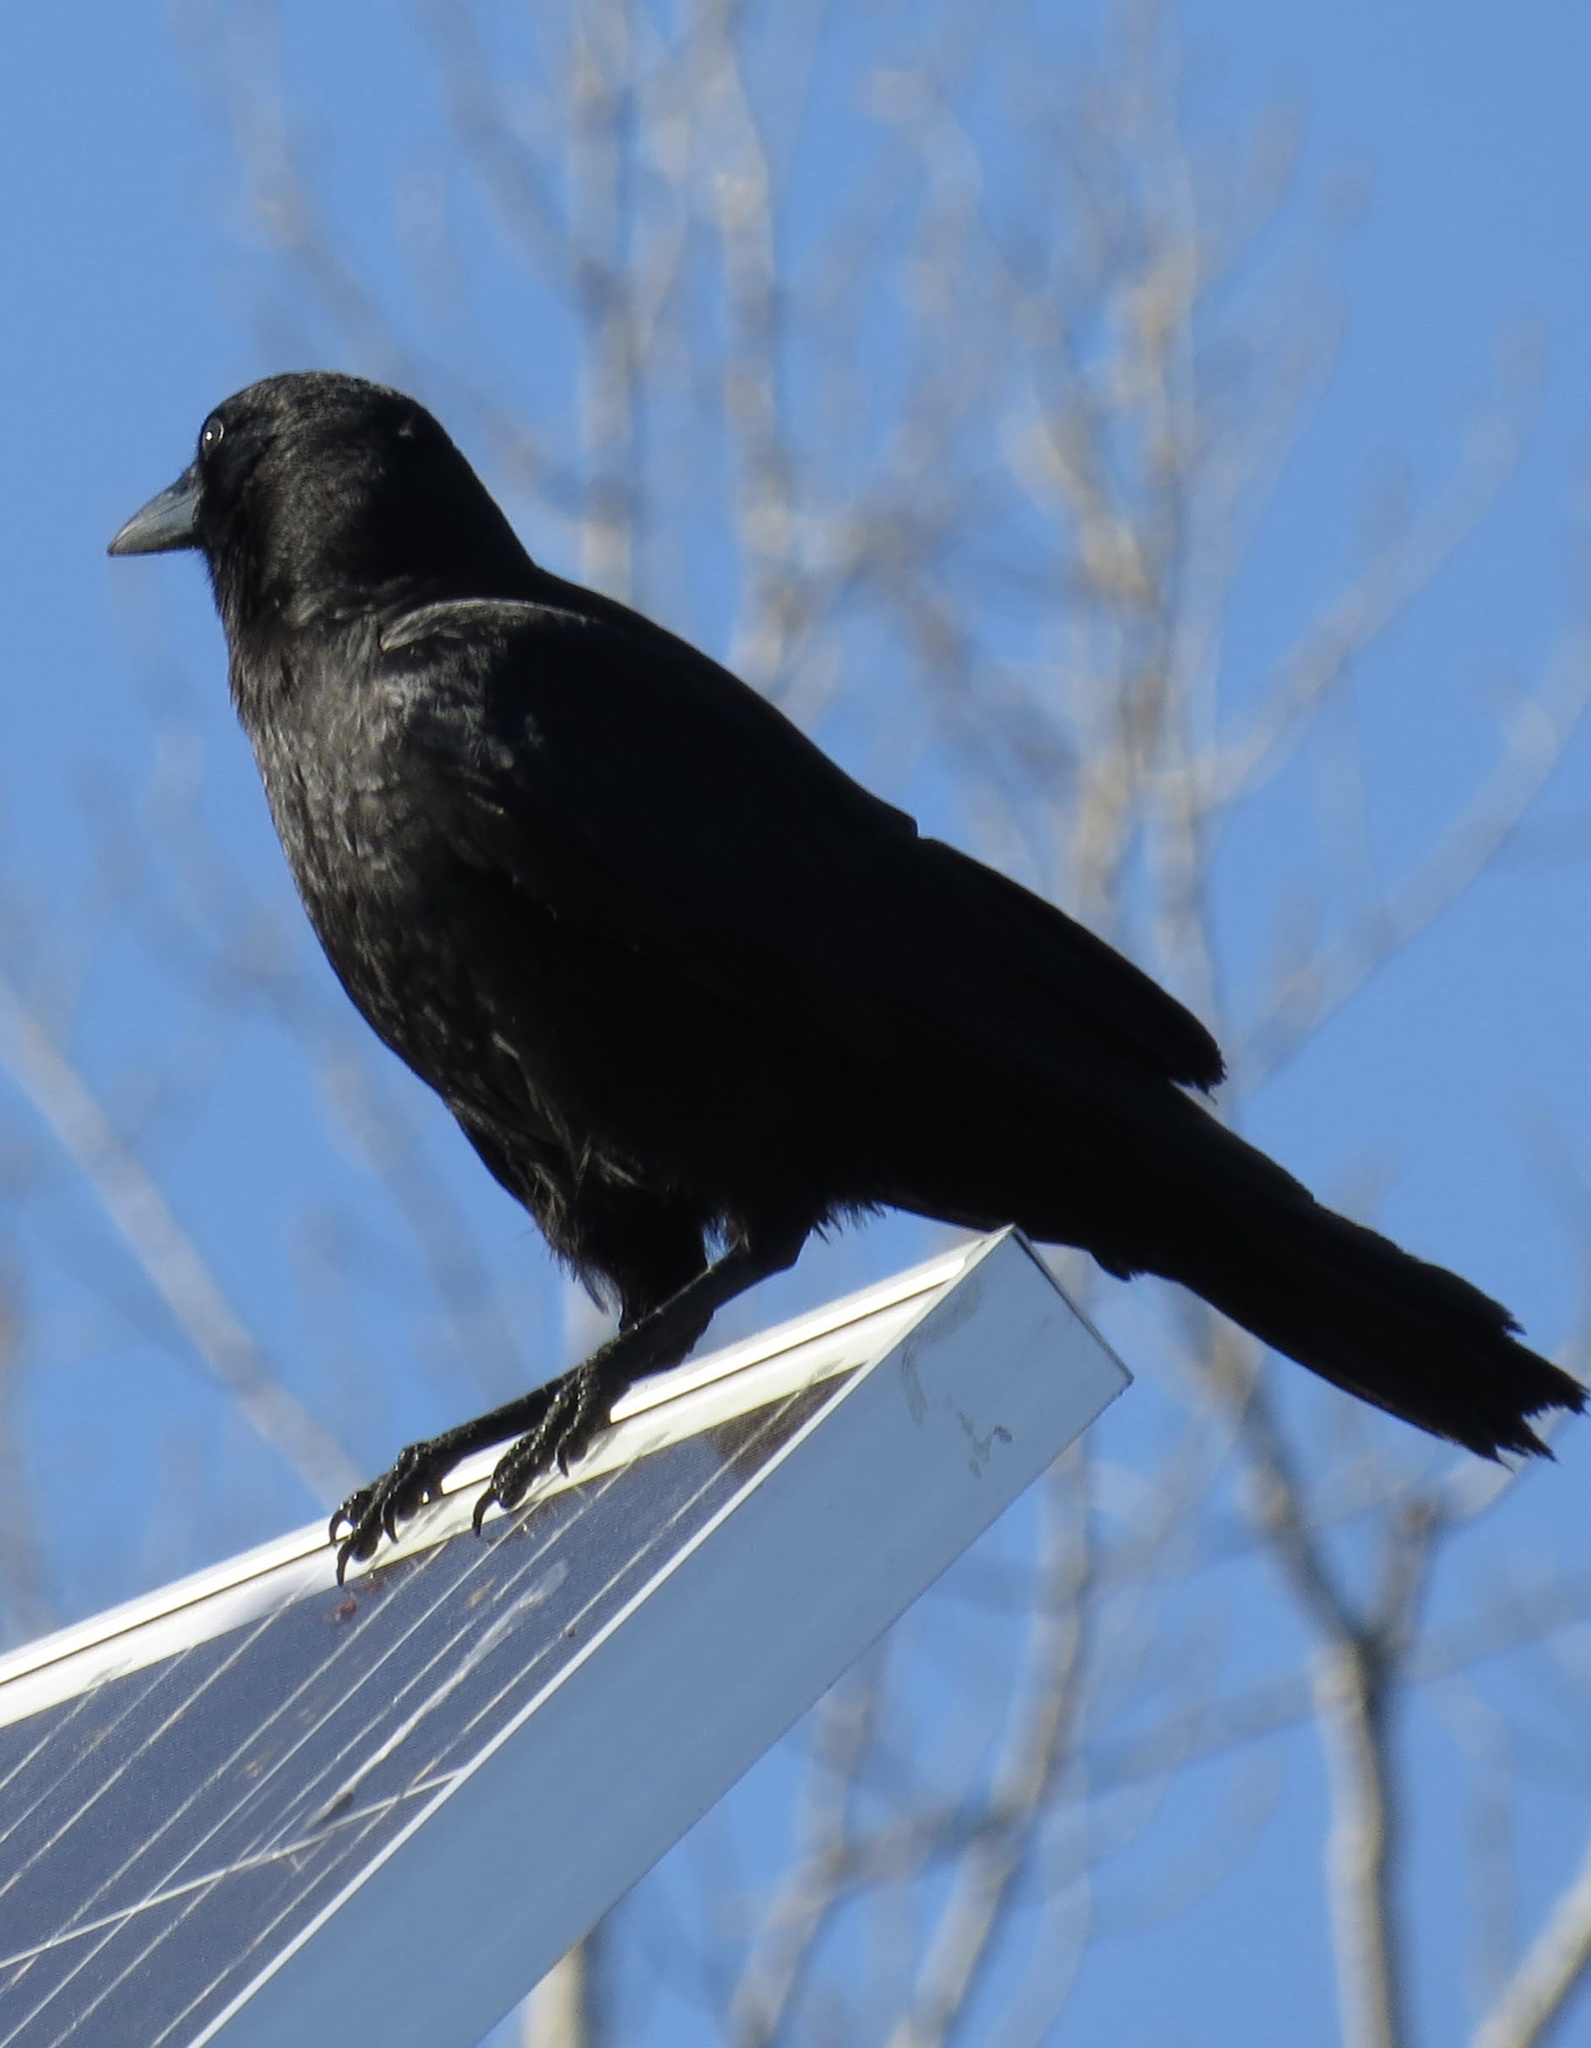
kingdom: Animalia
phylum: Chordata
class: Aves
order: Passeriformes
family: Corvidae
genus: Corvus
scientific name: Corvus brachyrhynchos
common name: American crow
